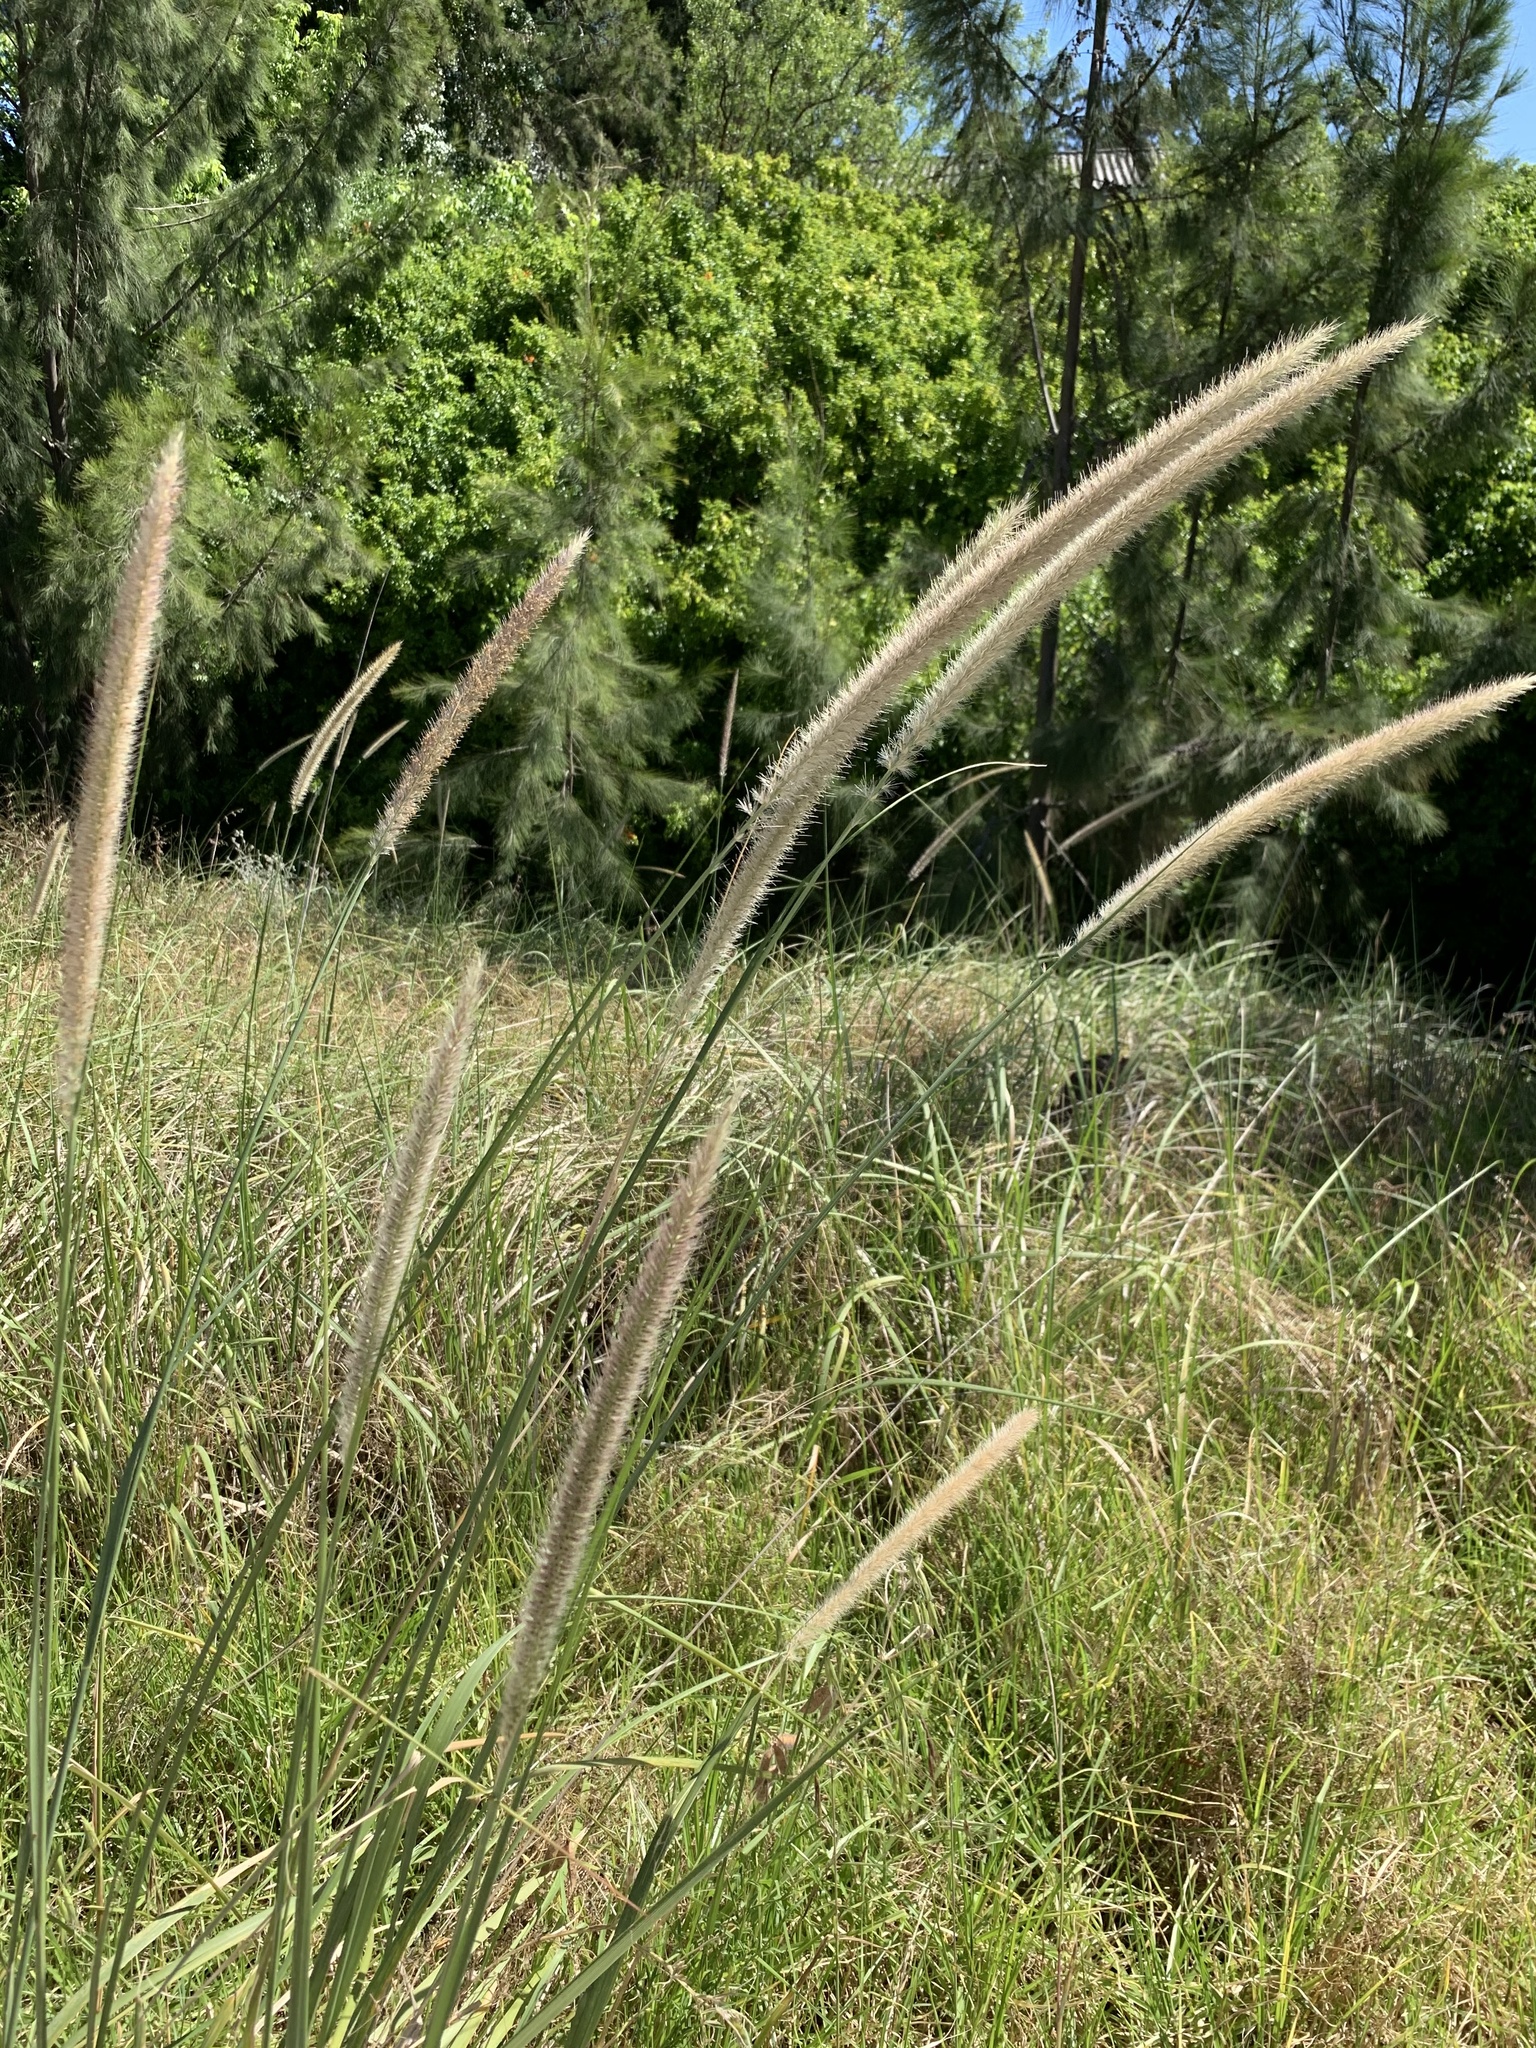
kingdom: Plantae
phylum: Tracheophyta
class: Liliopsida
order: Poales
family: Poaceae
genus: Cenchrus
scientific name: Cenchrus caudatus
